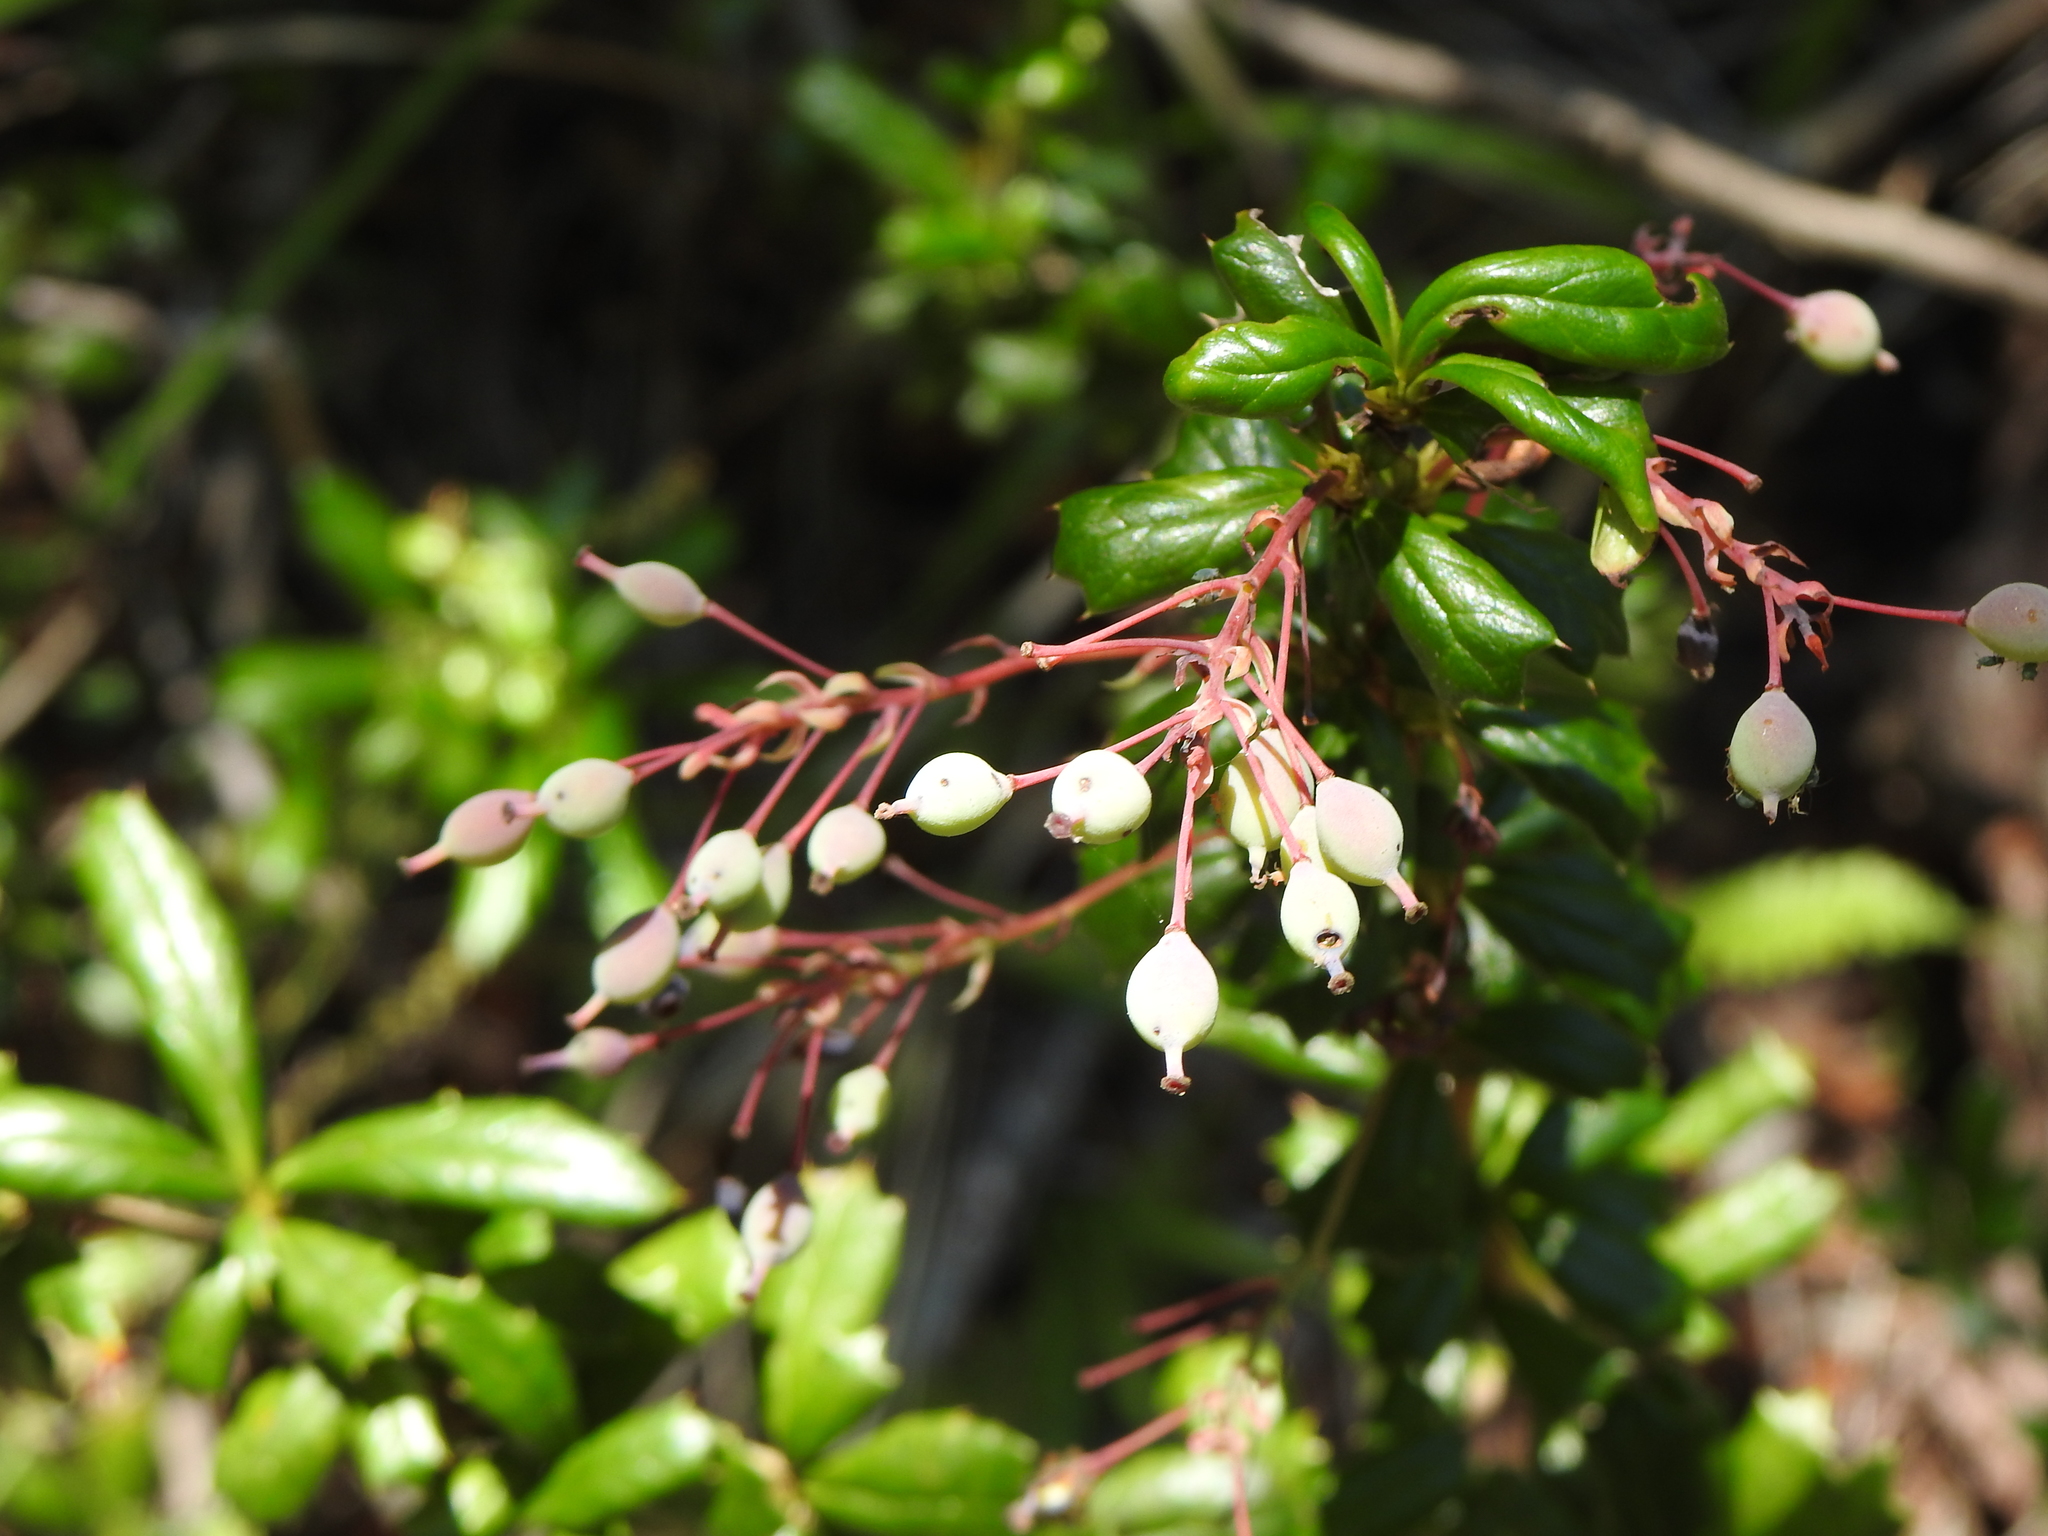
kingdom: Plantae
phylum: Tracheophyta
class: Magnoliopsida
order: Ranunculales
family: Berberidaceae
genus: Berberis
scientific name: Berberis darwinii
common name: Darwin's barberry
